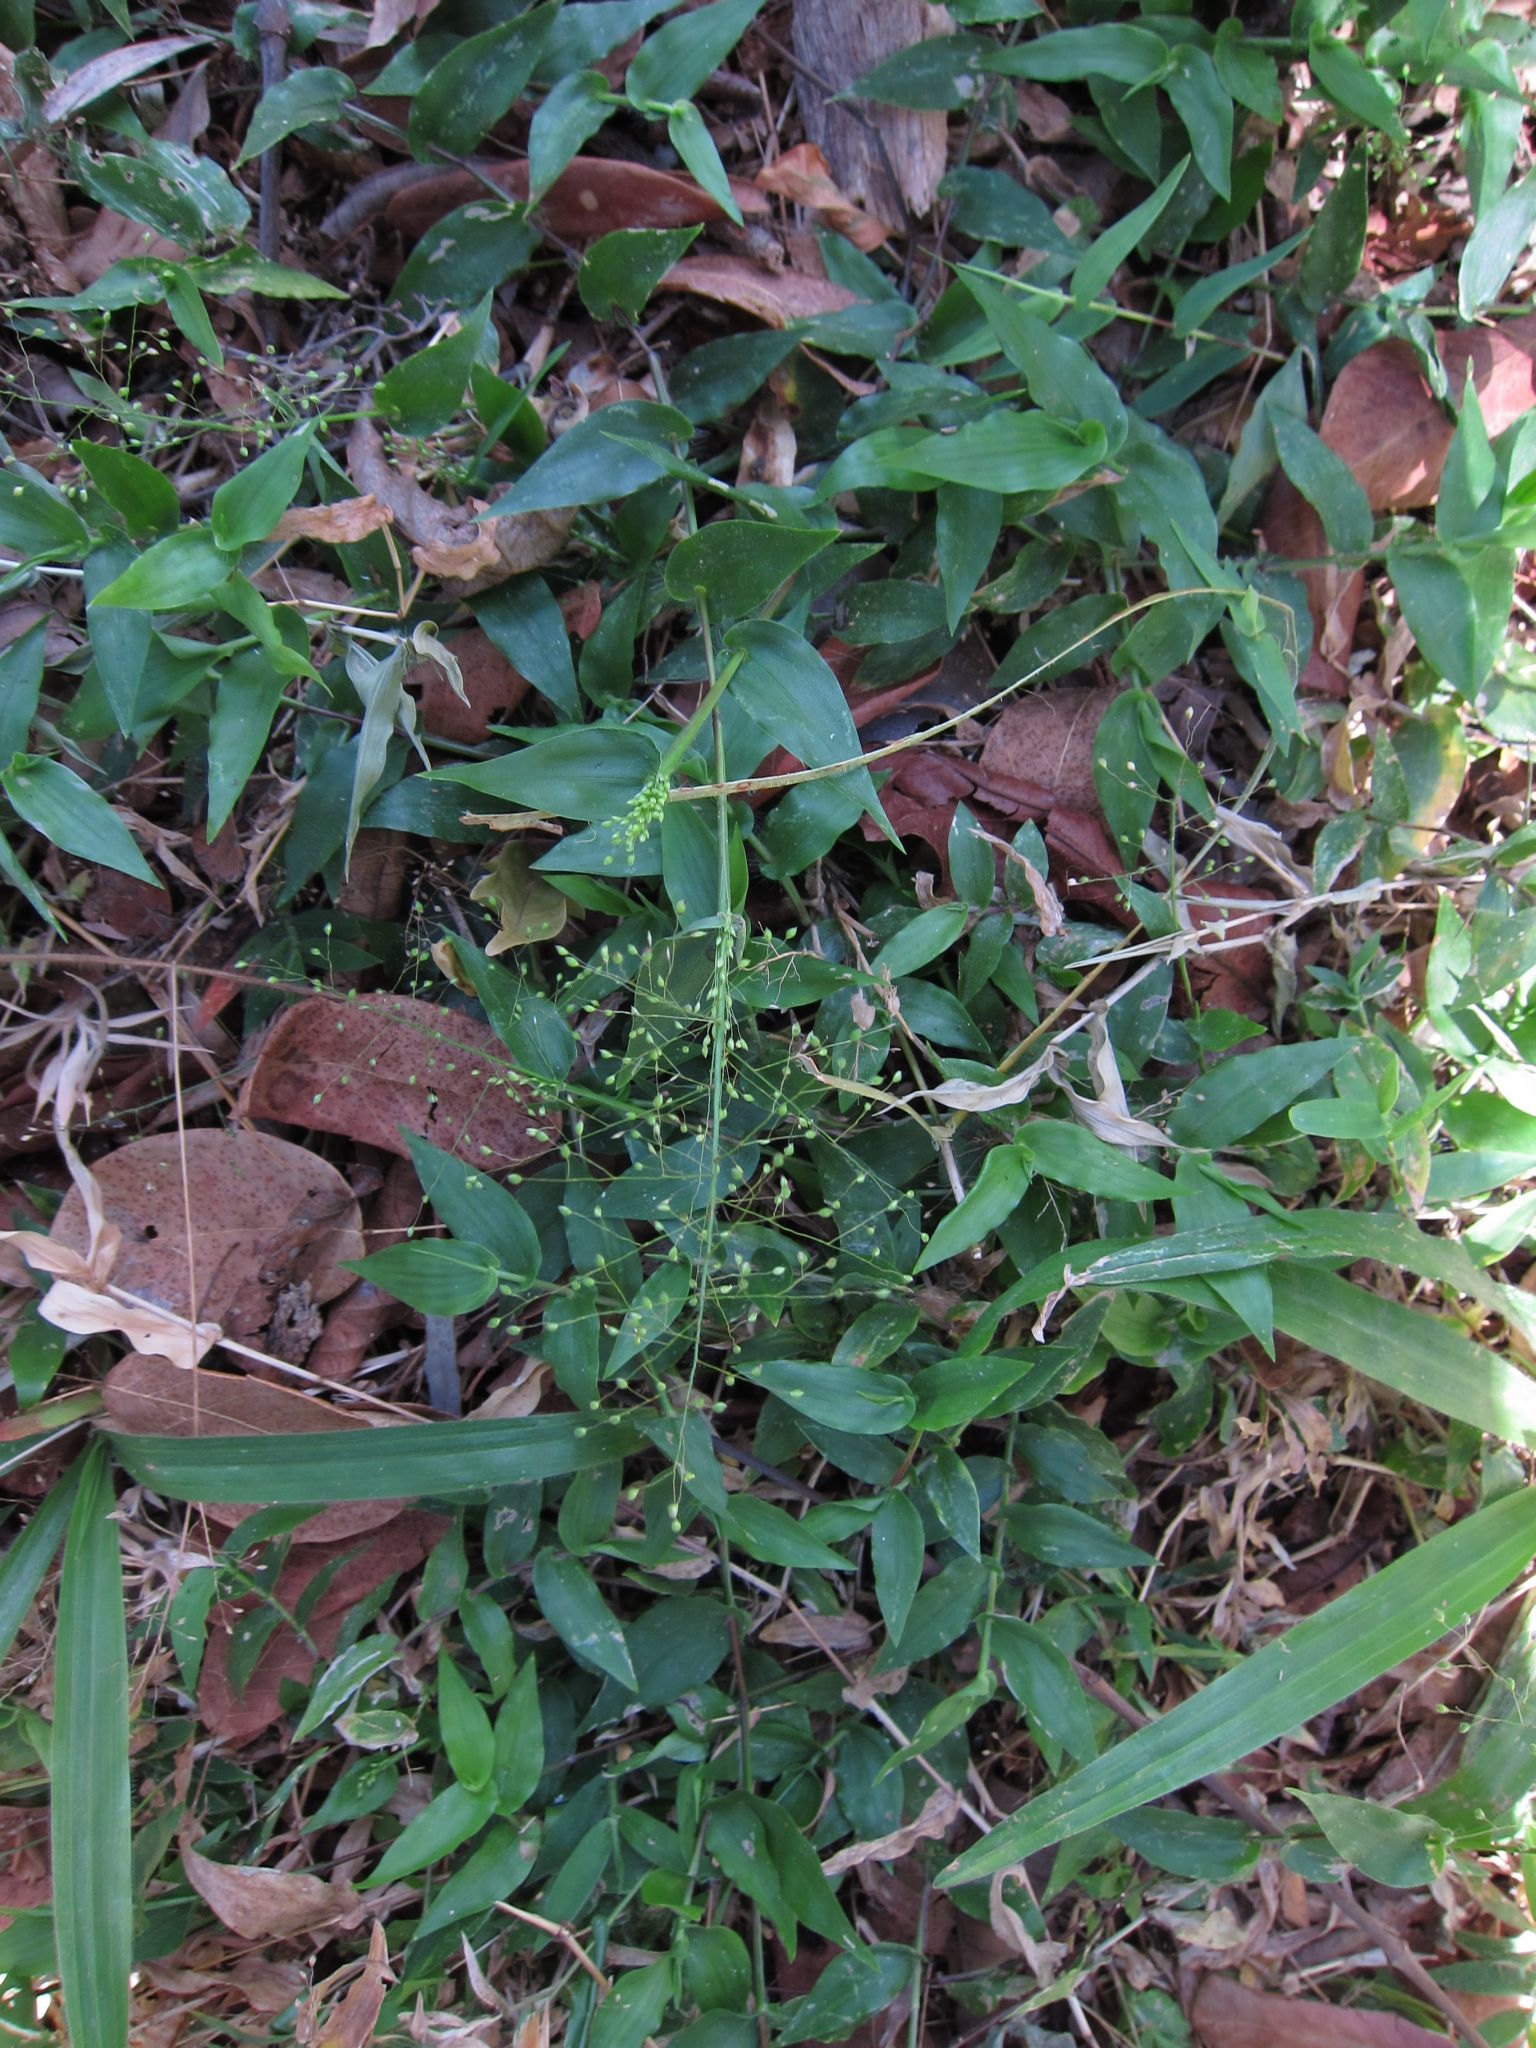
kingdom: Plantae
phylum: Tracheophyta
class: Liliopsida
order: Poales
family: Poaceae
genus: Panicum
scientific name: Panicum brevifolium
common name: Shortleaf panic grass
